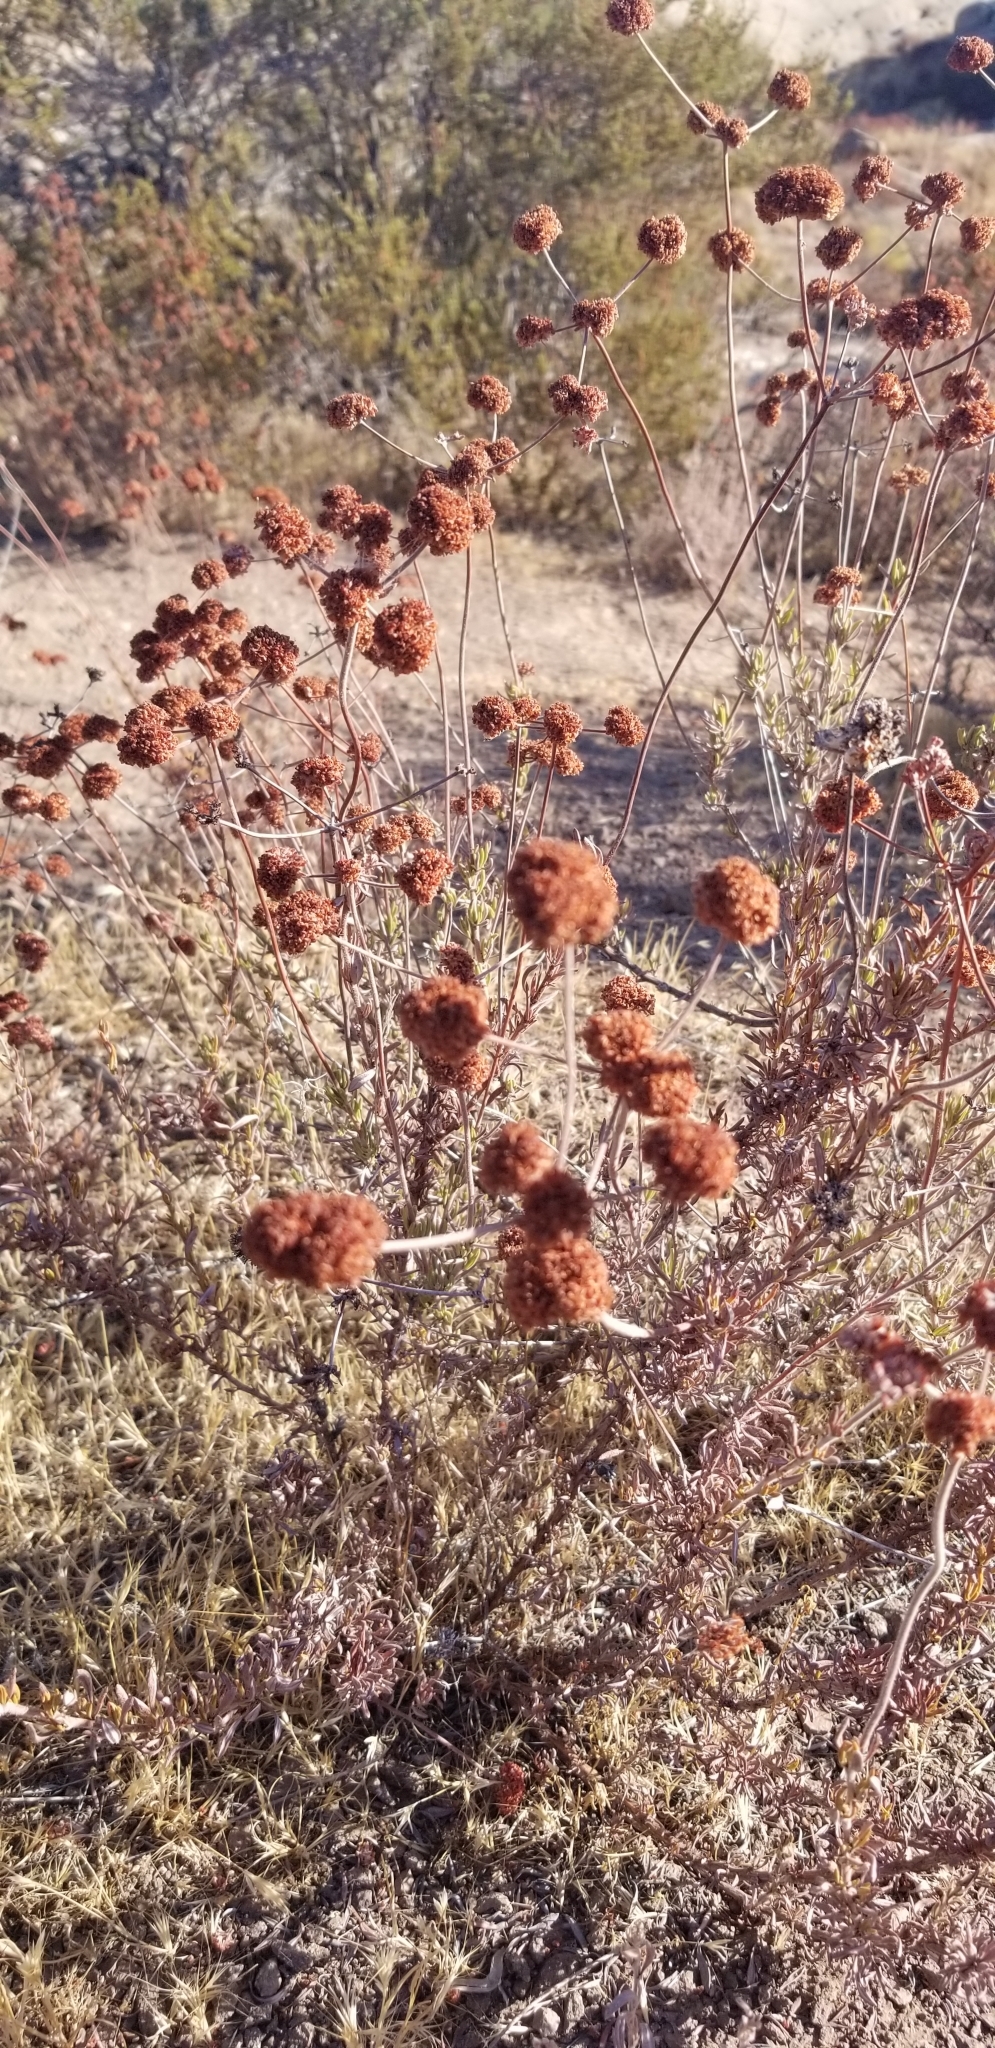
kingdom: Plantae
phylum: Tracheophyta
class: Magnoliopsida
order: Caryophyllales
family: Polygonaceae
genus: Eriogonum
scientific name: Eriogonum fasciculatum
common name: California wild buckwheat
